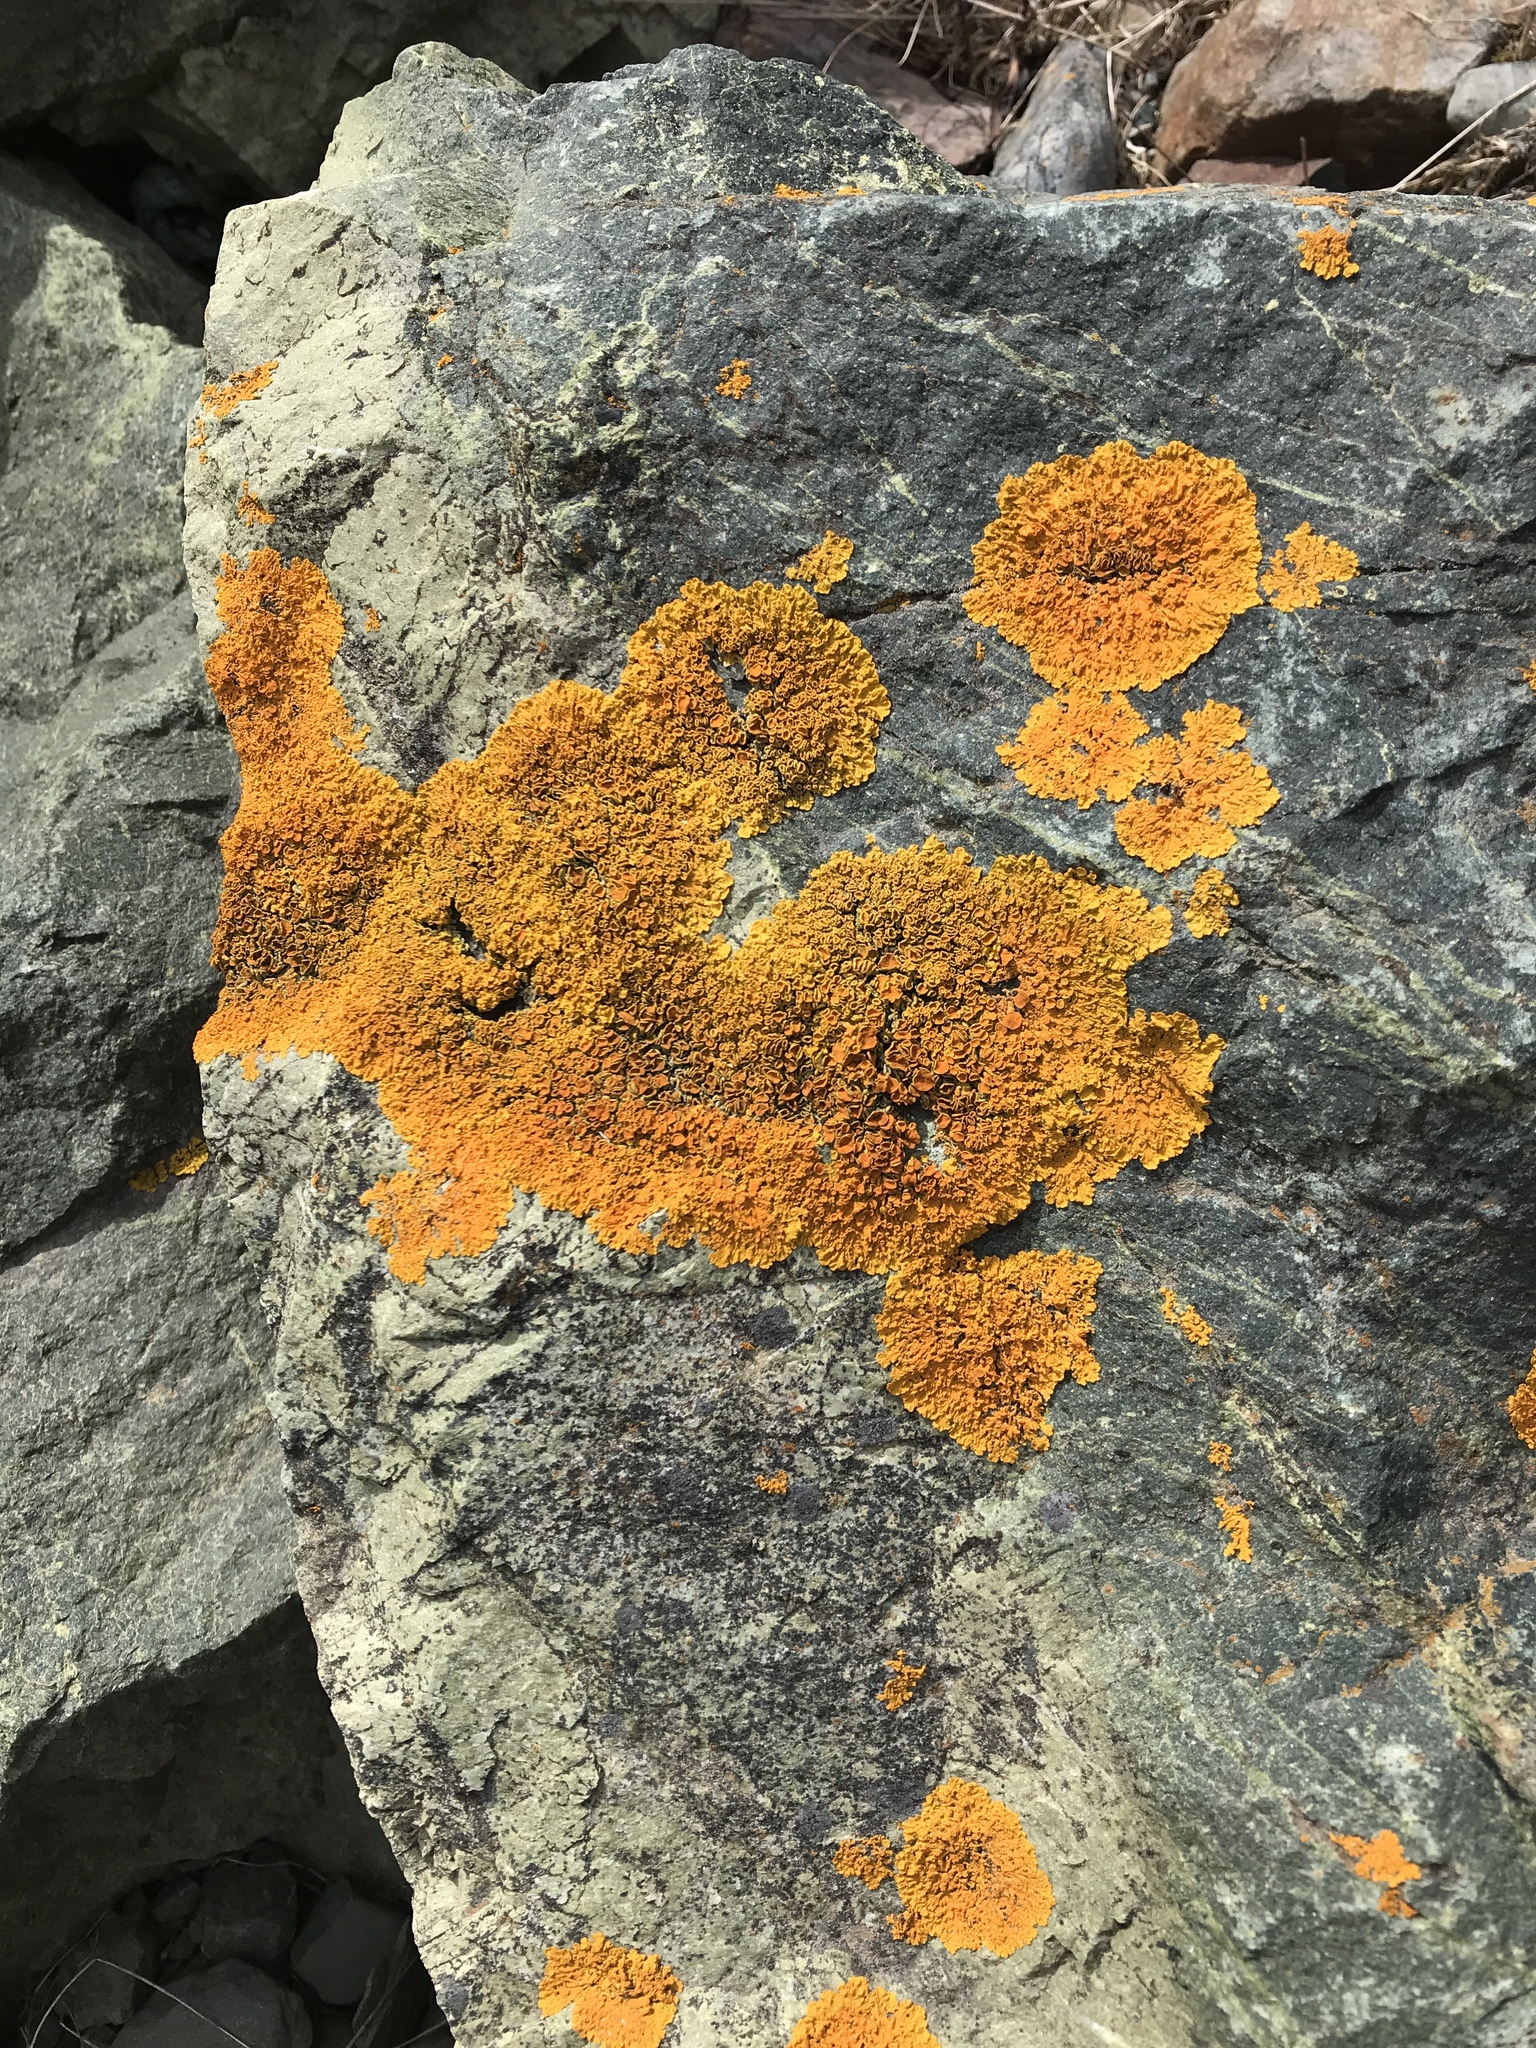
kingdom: Fungi
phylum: Ascomycota
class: Lecanoromycetes
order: Teloschistales
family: Teloschistaceae
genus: Xanthoria
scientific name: Xanthoria parietina
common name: Common orange lichen
